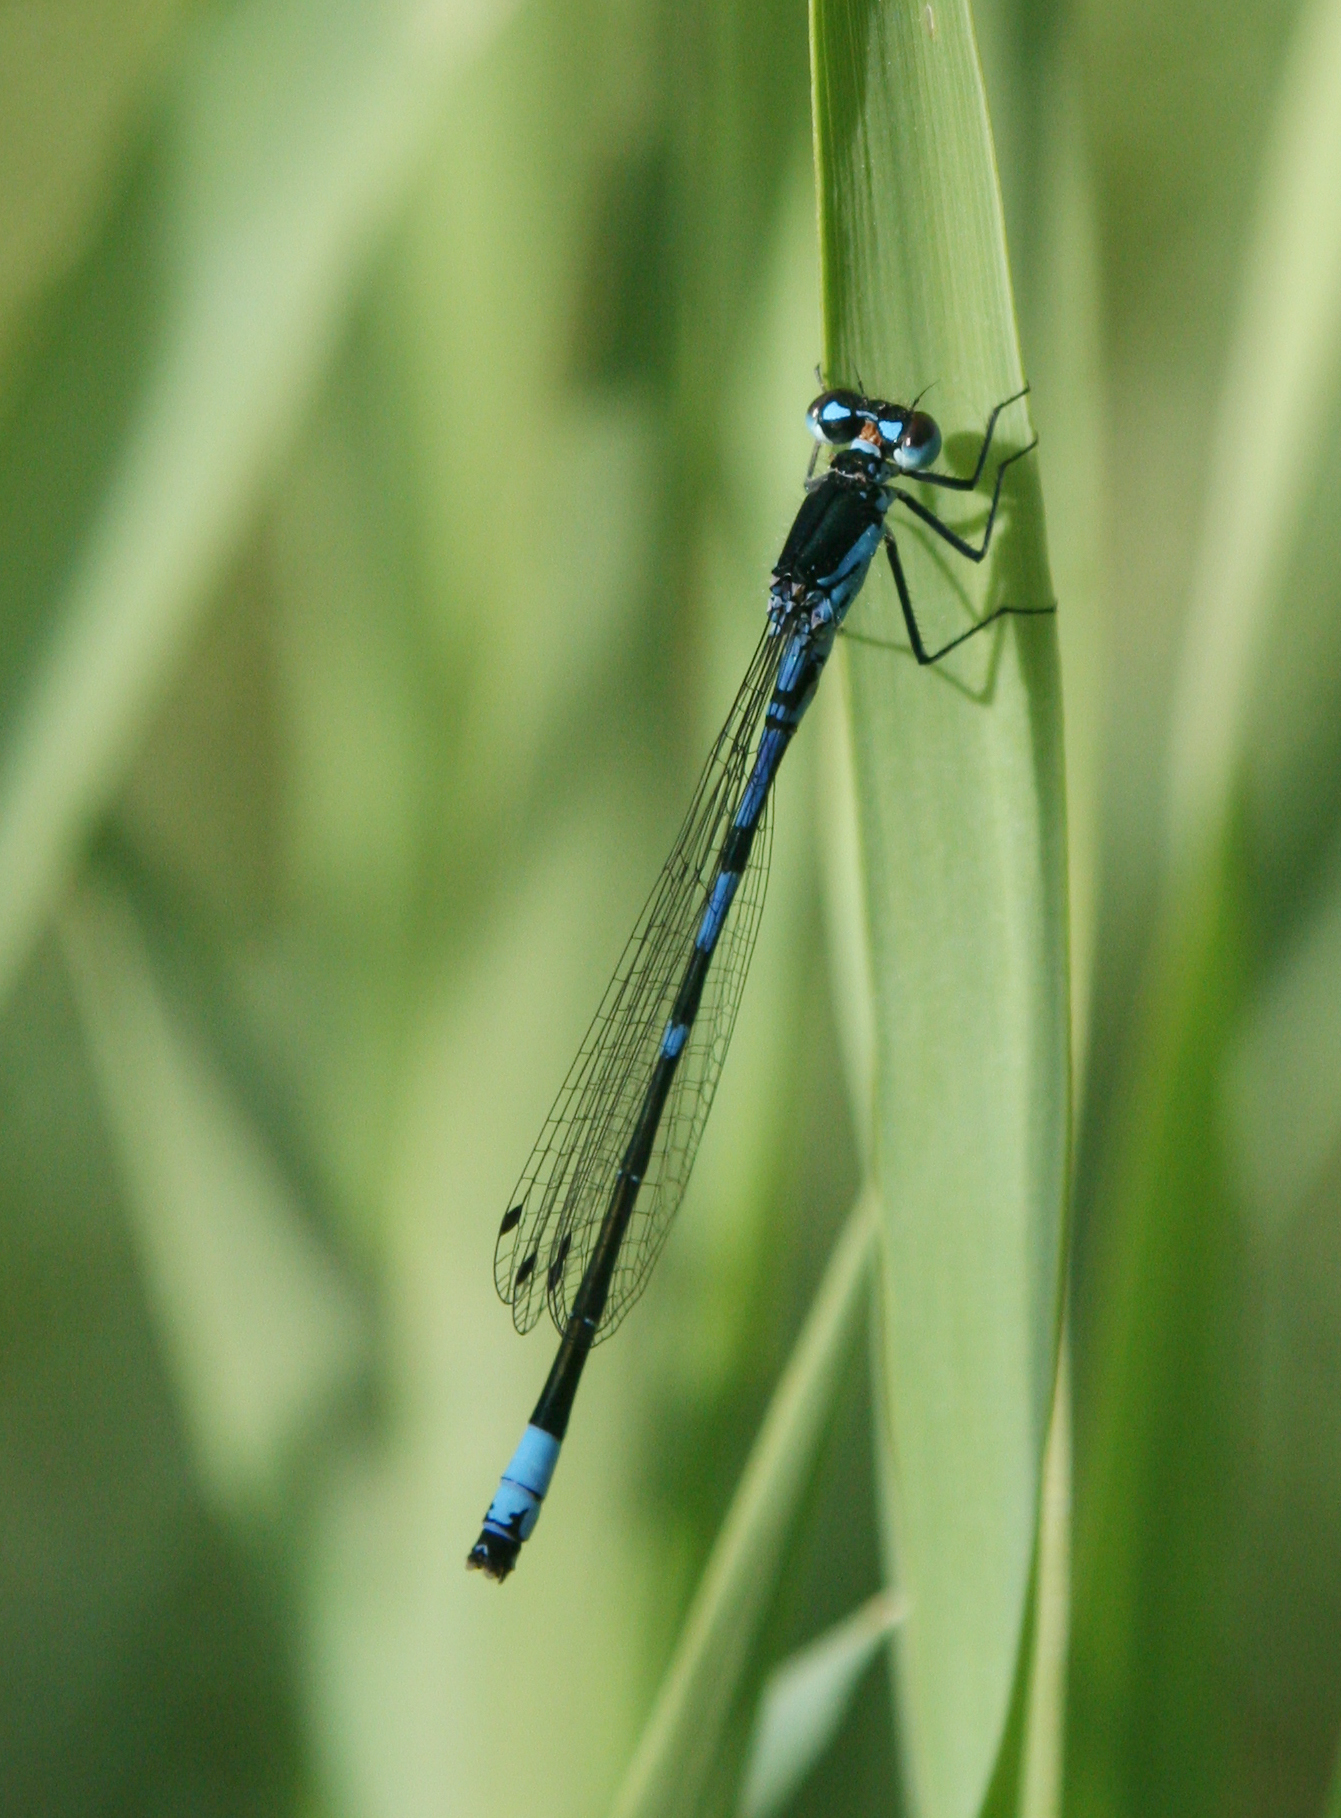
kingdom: Animalia
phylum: Arthropoda
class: Insecta
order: Odonata
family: Coenagrionidae
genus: Coenagrion
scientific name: Coenagrion persicum
